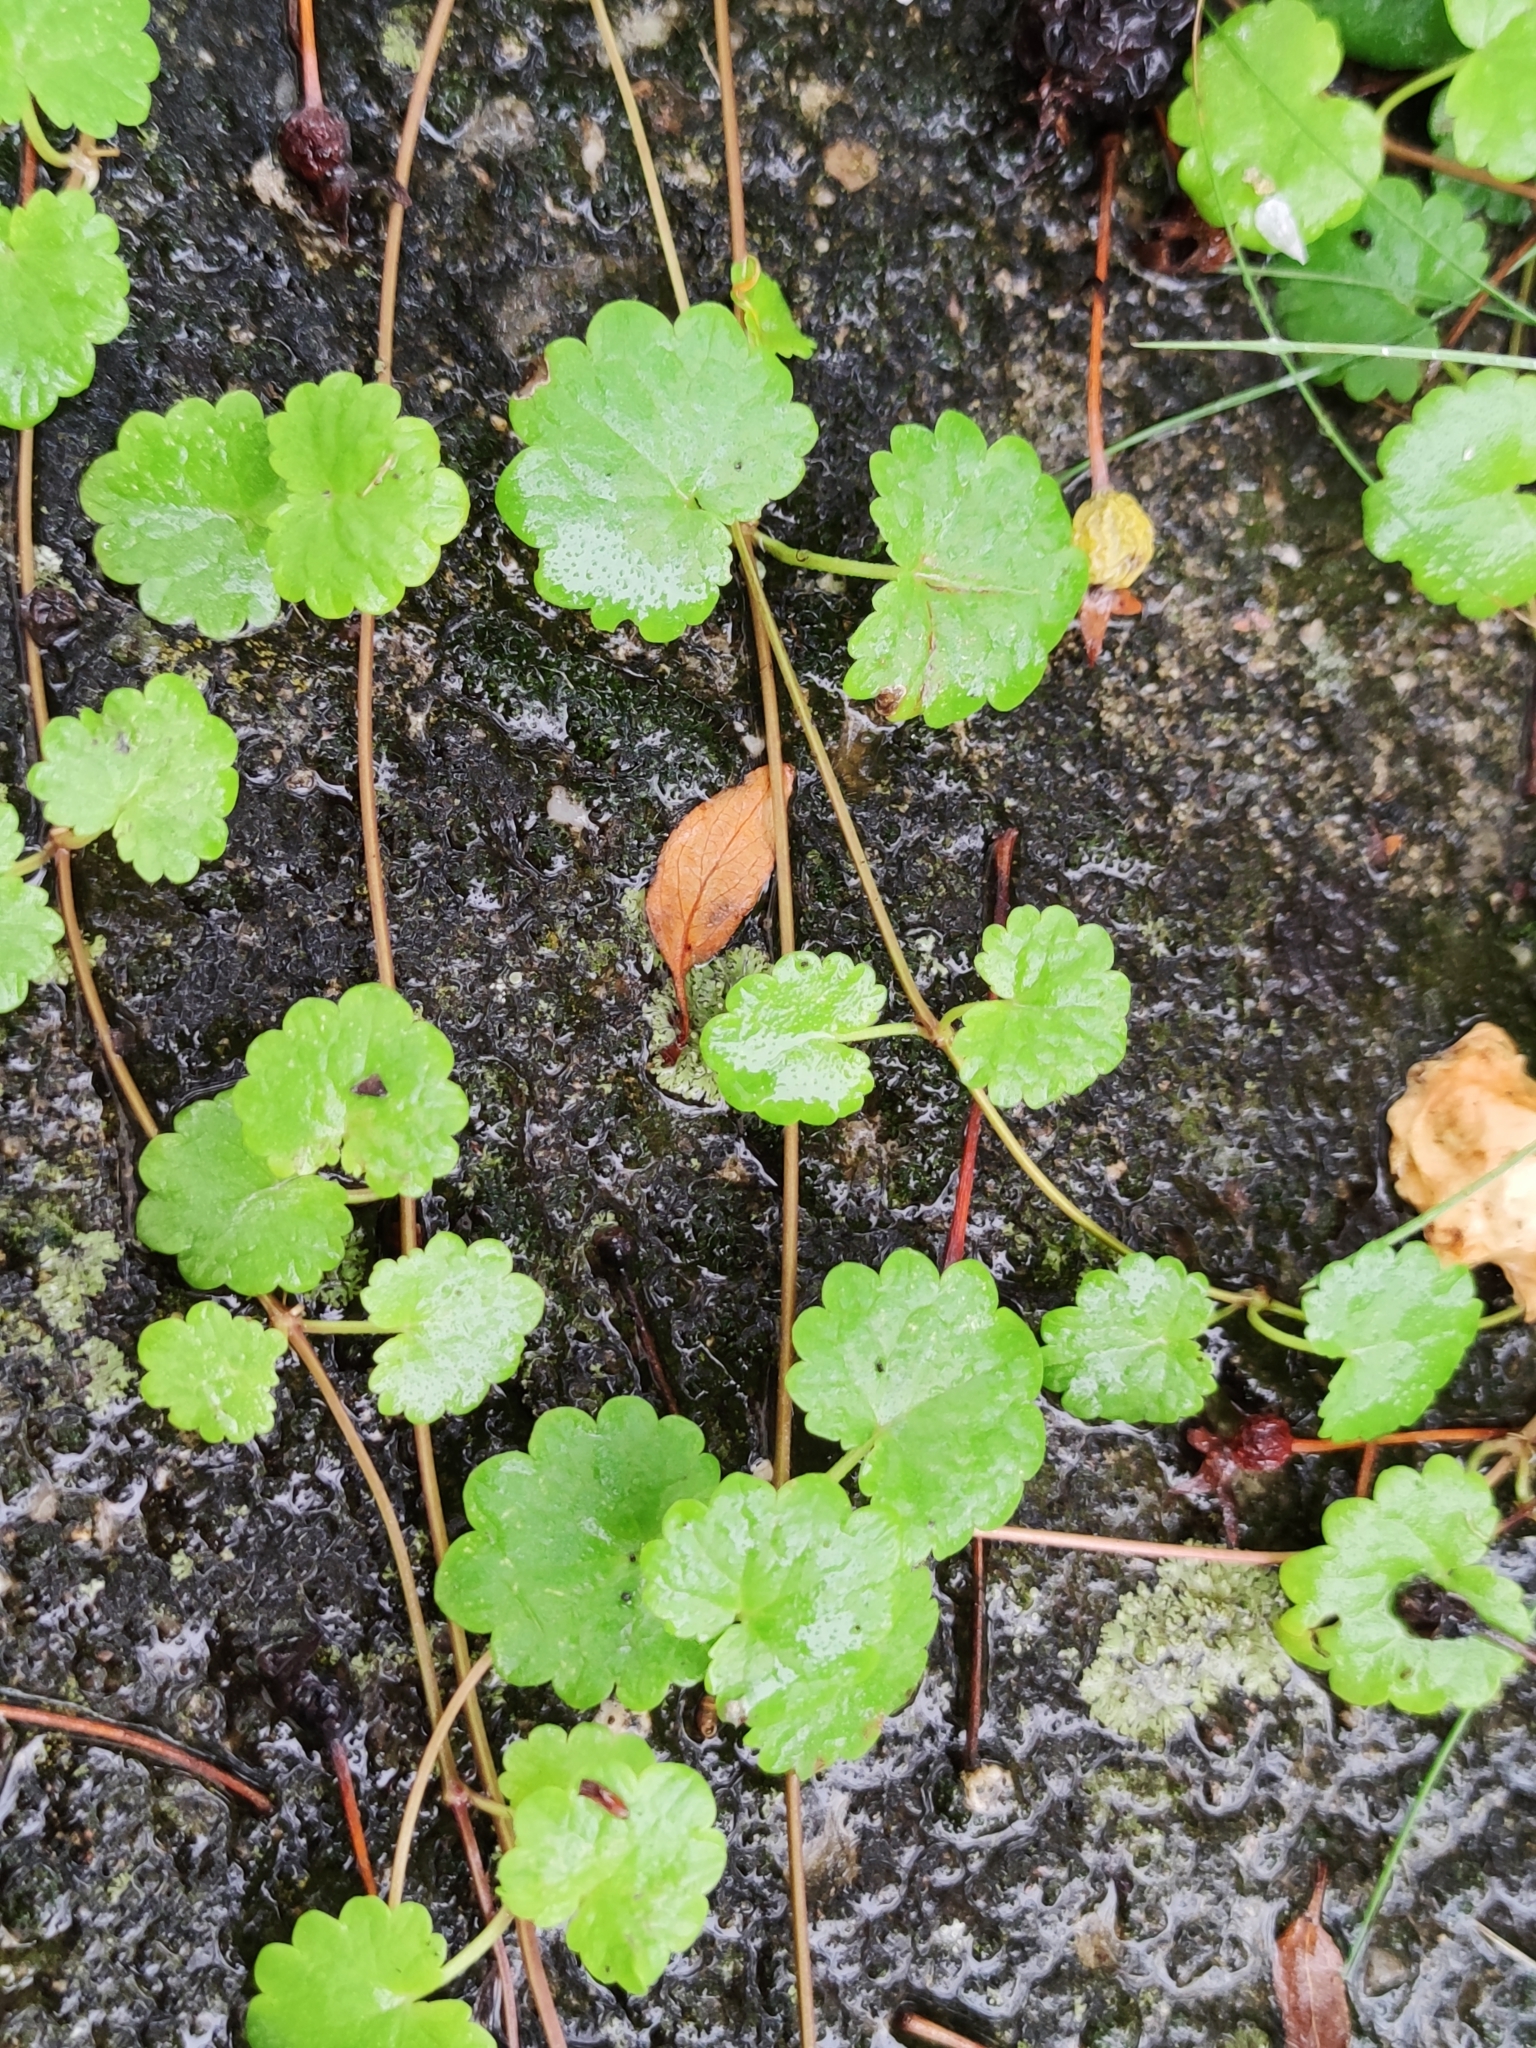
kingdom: Plantae
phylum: Tracheophyta
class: Magnoliopsida
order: Lamiales
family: Lamiaceae
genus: Glechoma
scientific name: Glechoma hederacea
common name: Ground ivy
